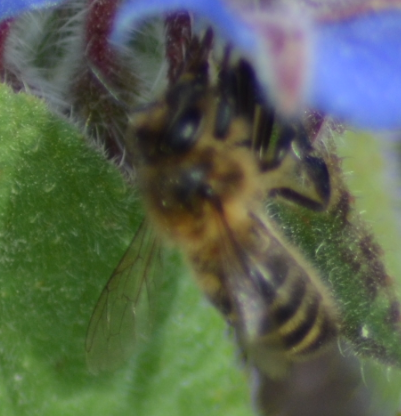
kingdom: Animalia
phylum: Arthropoda
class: Insecta
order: Hymenoptera
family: Apidae
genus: Apis
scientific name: Apis mellifera
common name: Honey bee
